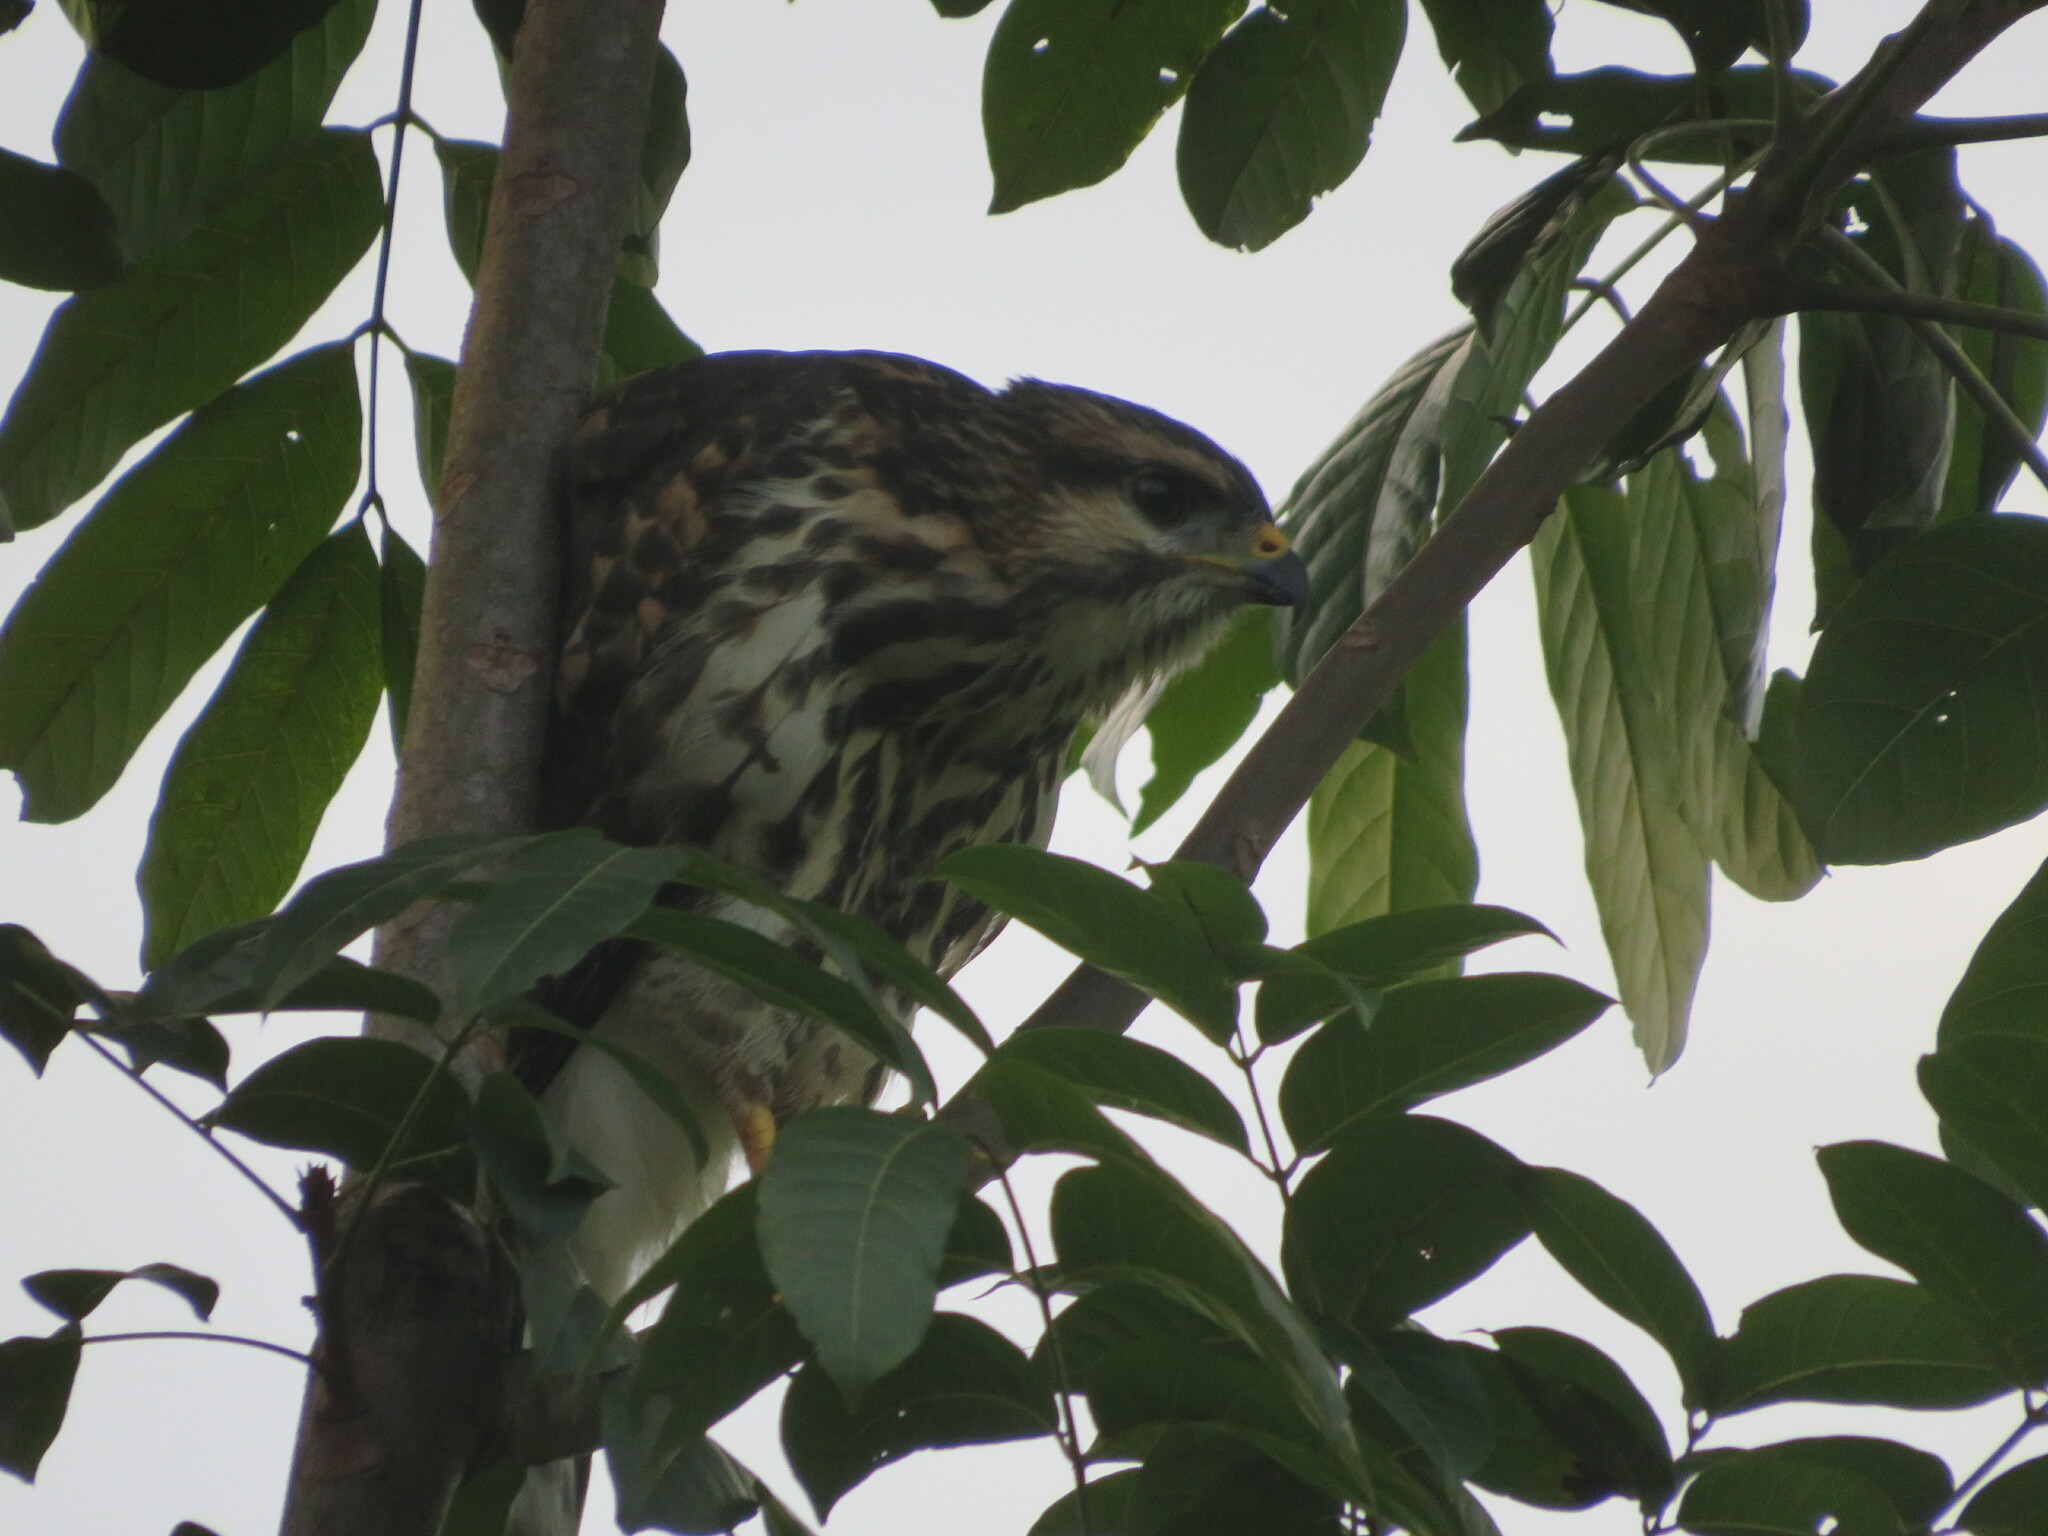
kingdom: Animalia
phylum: Chordata
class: Aves
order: Accipitriformes
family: Accipitridae
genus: Buteo
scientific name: Buteo nitidus
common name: Grey-lined hawk
